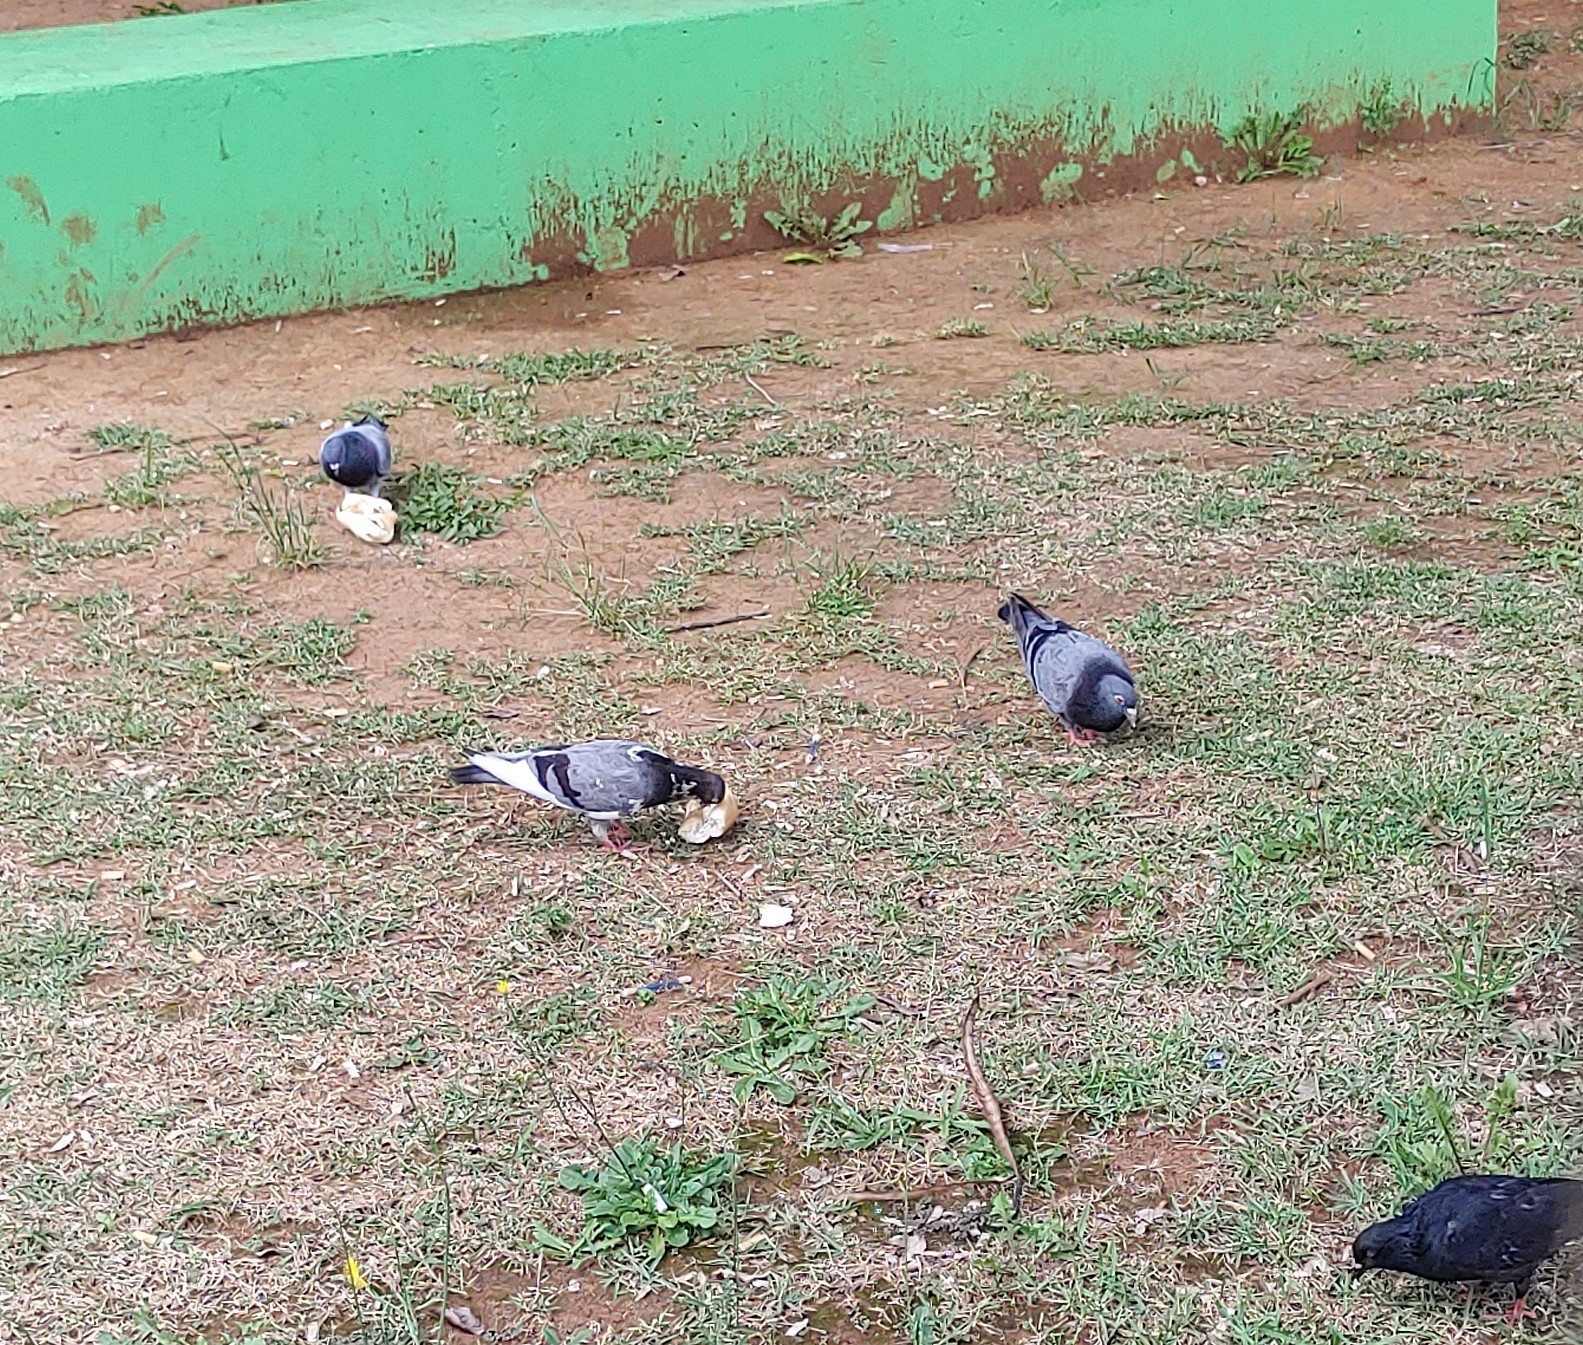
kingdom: Animalia
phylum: Chordata
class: Aves
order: Columbiformes
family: Columbidae
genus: Columba
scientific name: Columba livia
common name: Rock pigeon
